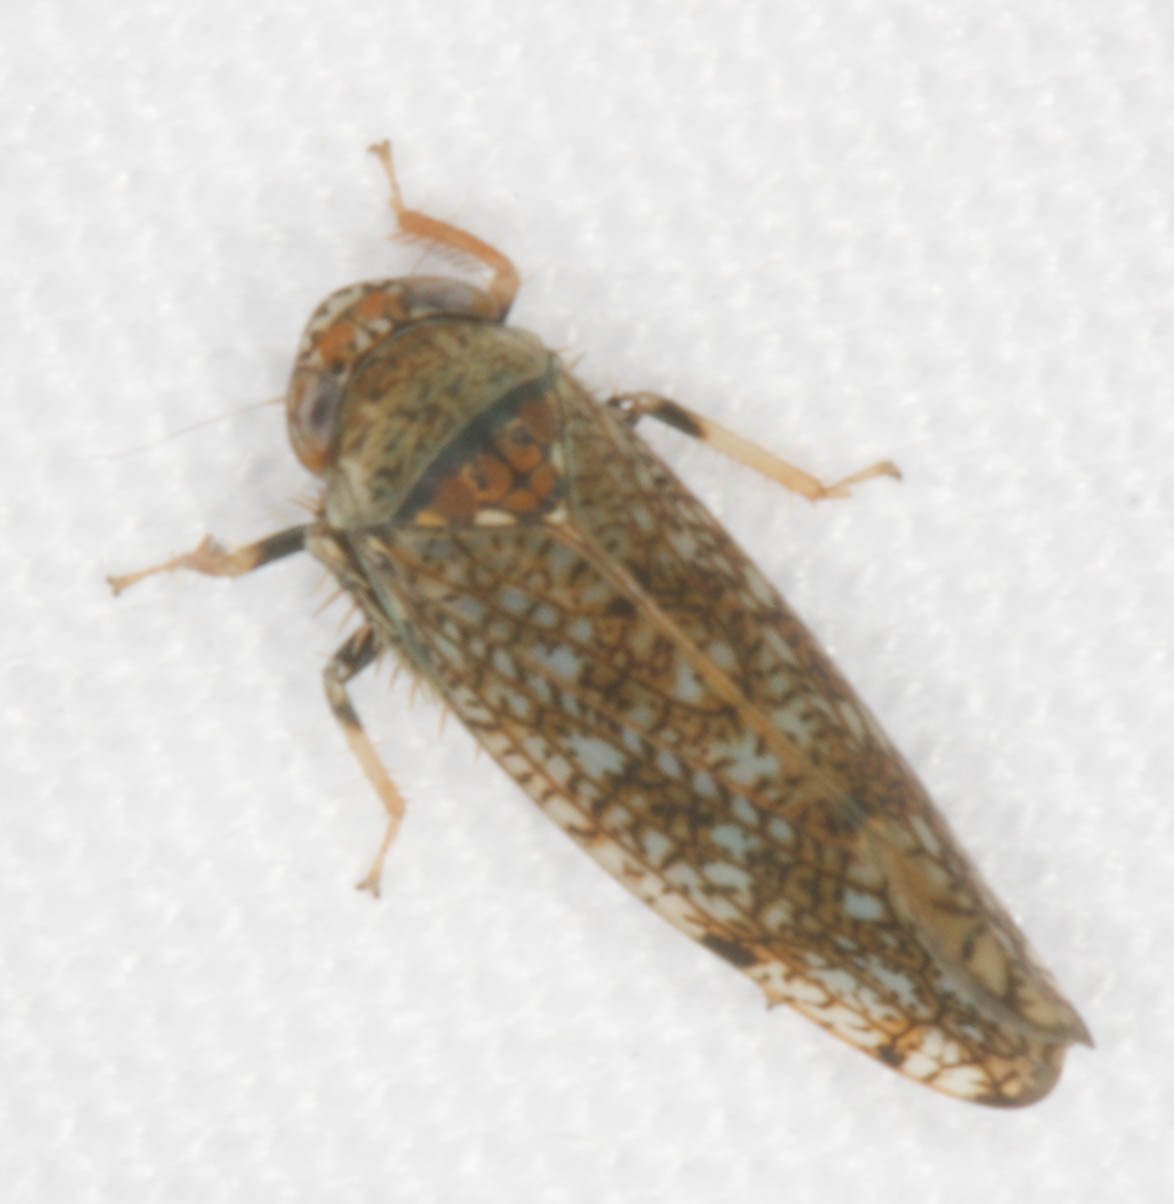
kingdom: Animalia
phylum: Arthropoda
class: Insecta
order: Hemiptera
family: Cicadellidae
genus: Orientus
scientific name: Orientus ishidae
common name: Japanese leafhopper
